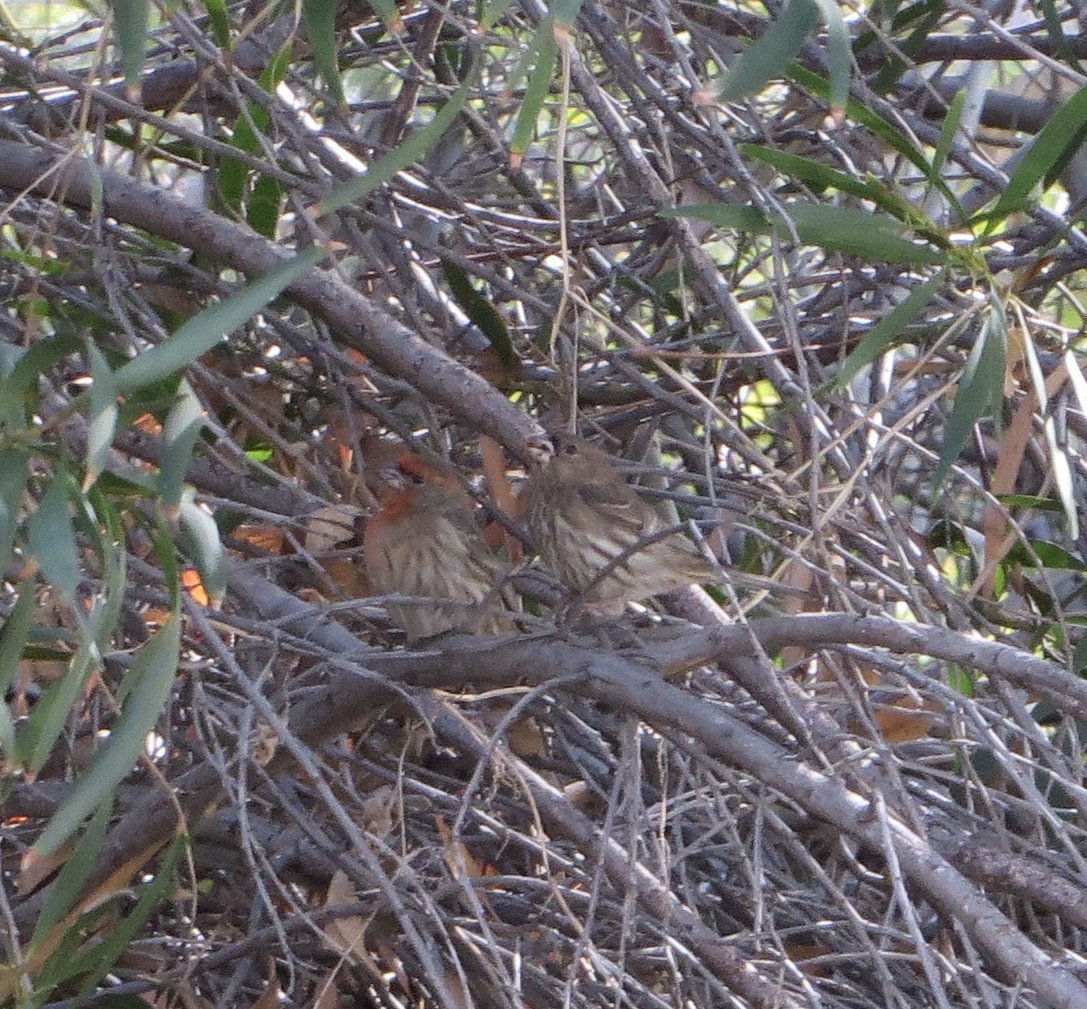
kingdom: Animalia
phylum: Chordata
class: Aves
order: Passeriformes
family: Fringillidae
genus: Haemorhous
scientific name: Haemorhous mexicanus
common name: House finch
